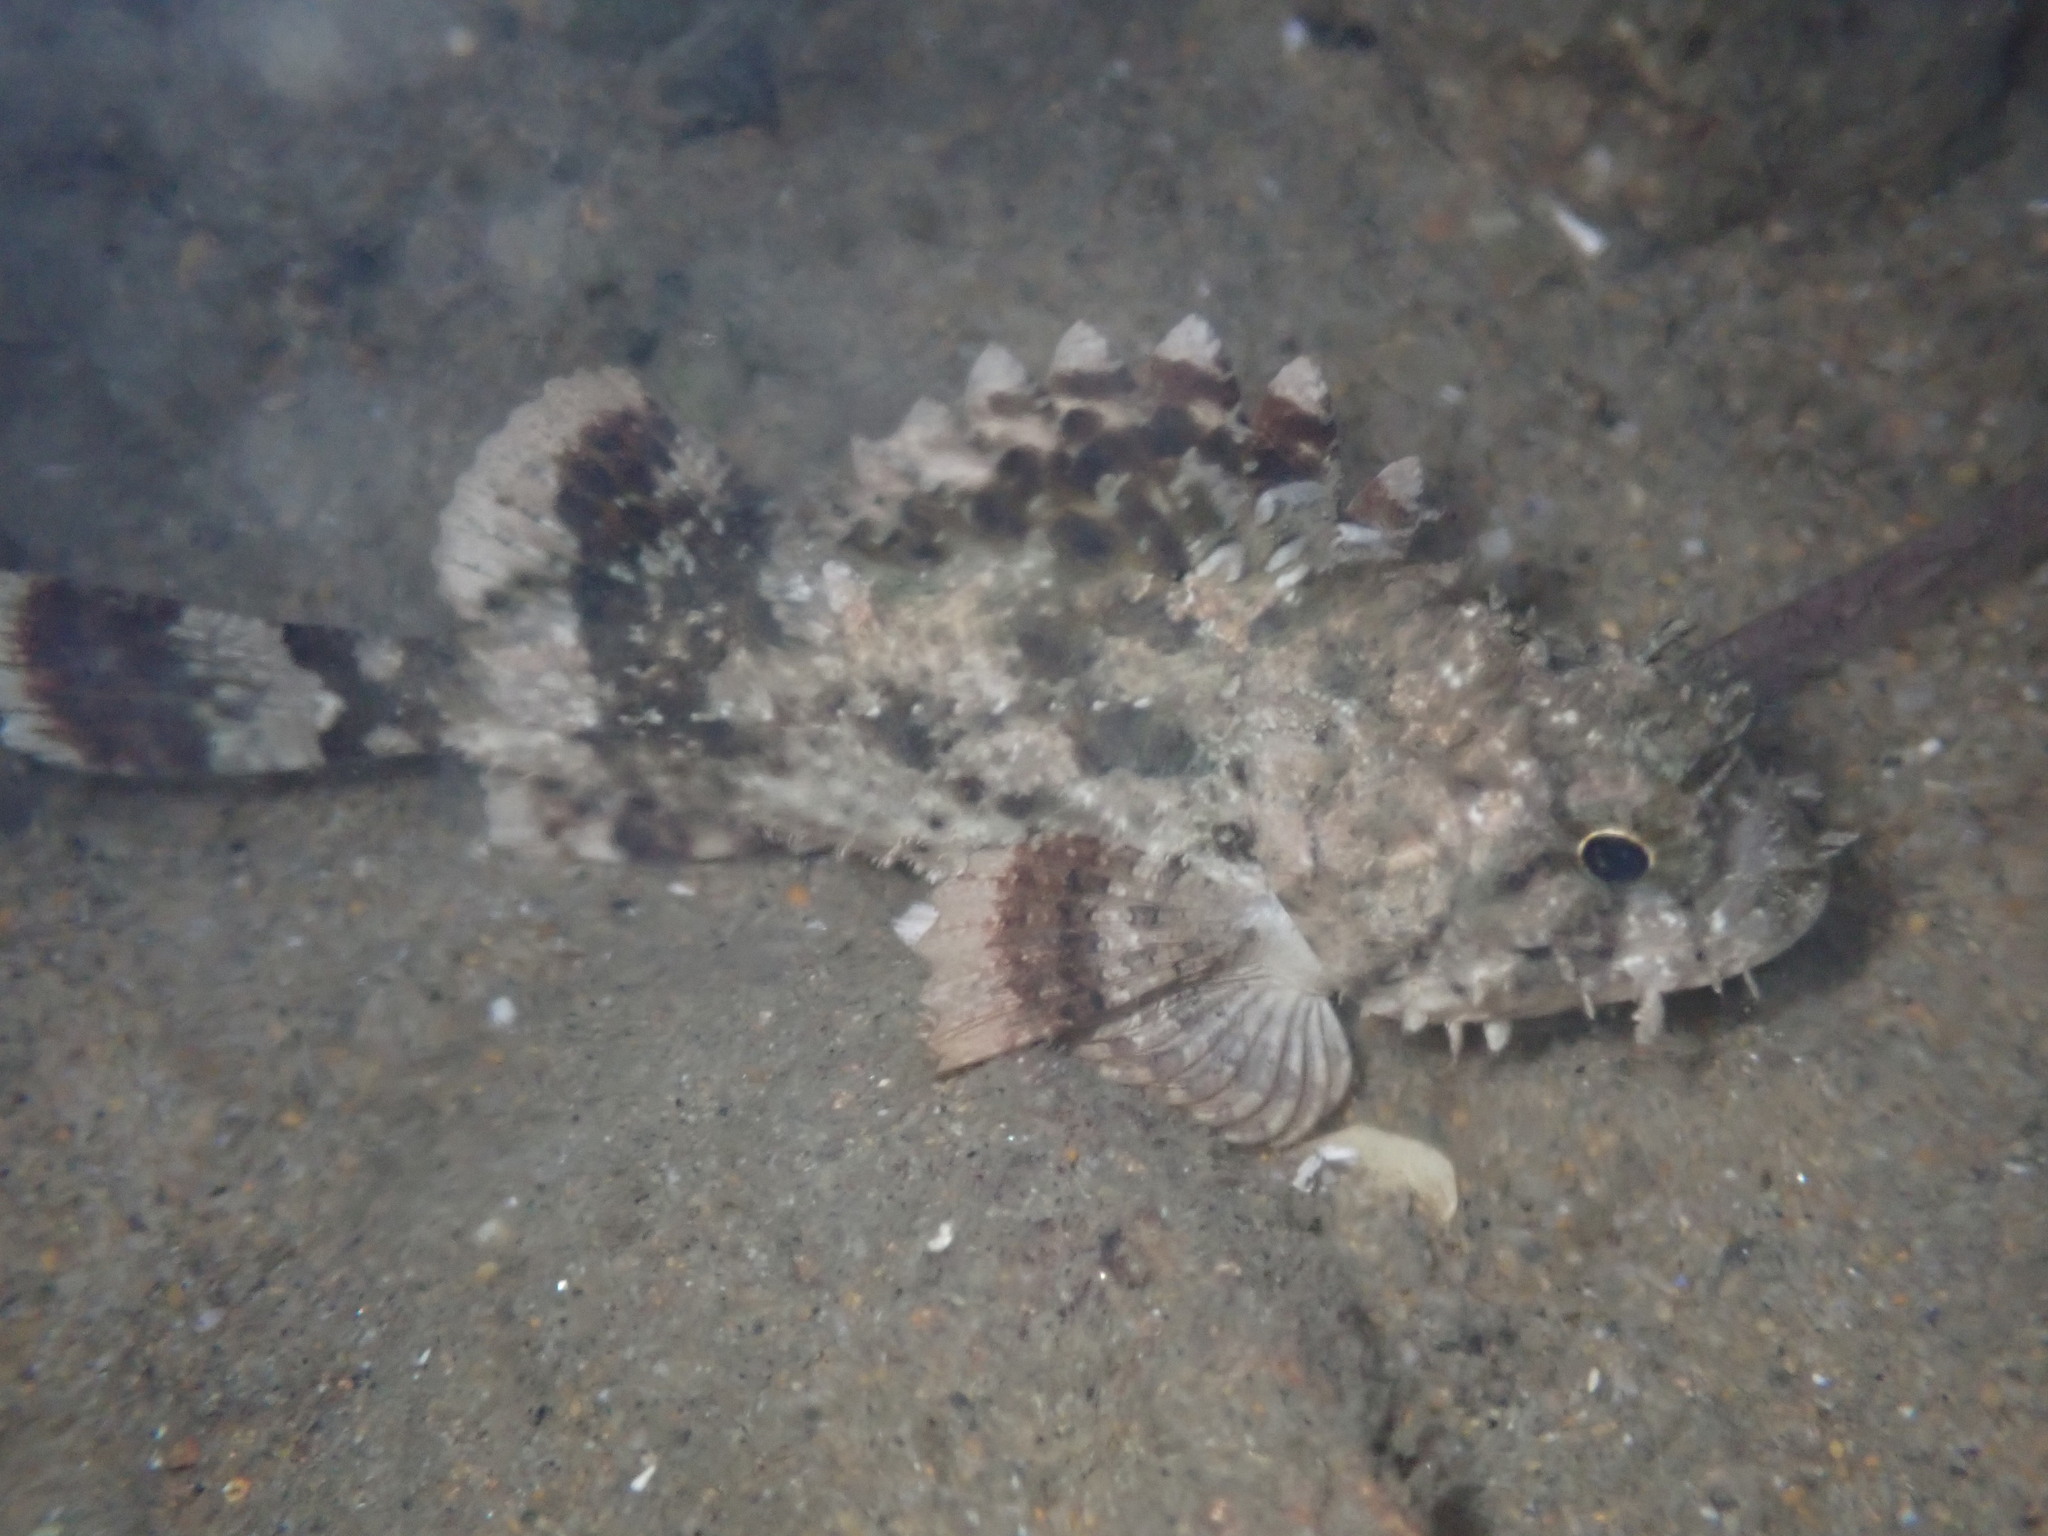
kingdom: Animalia
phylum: Chordata
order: Scorpaeniformes
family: Scorpaenidae
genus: Scorpaena
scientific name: Scorpaena guttata
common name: California scorpionfish
